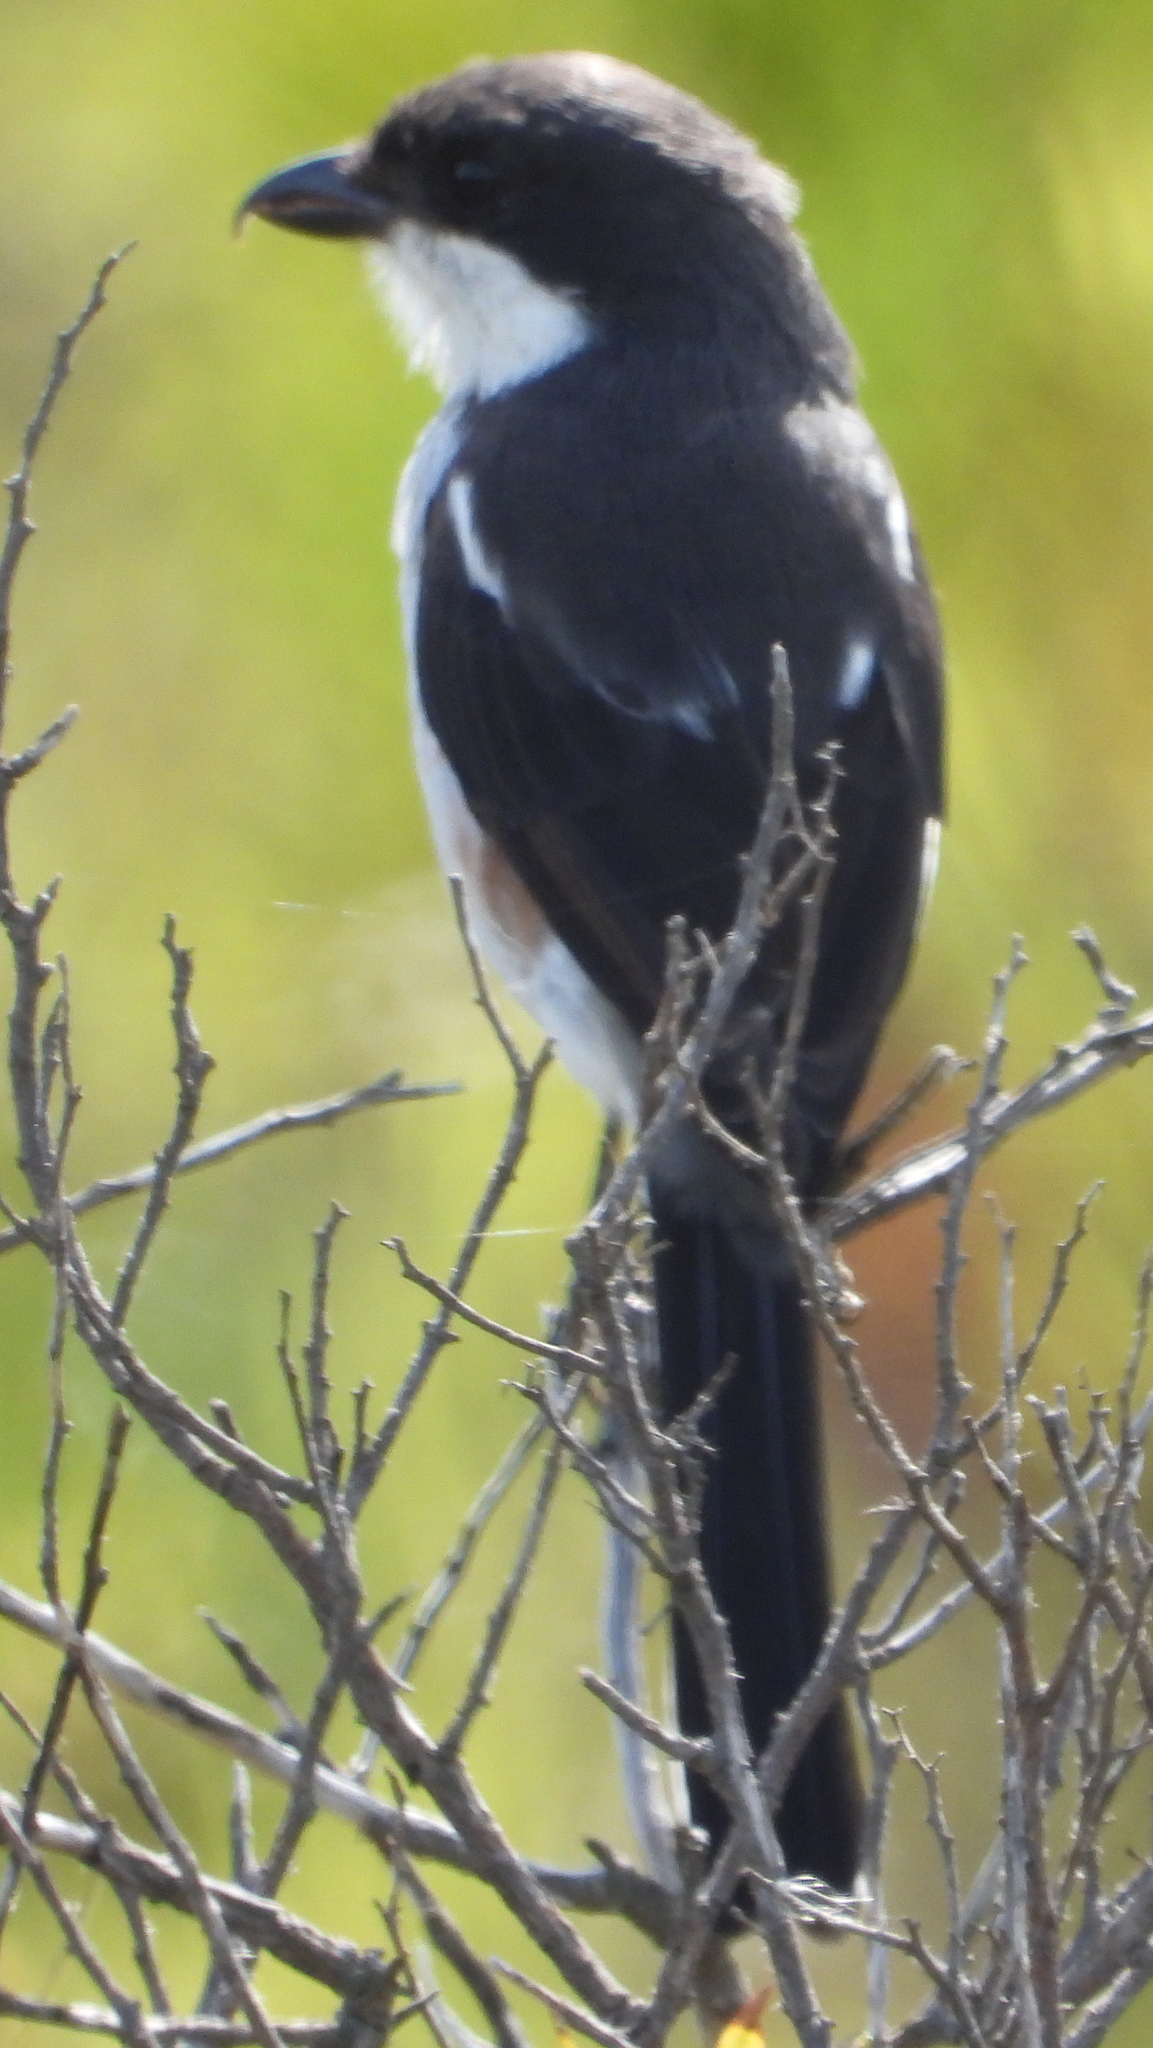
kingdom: Animalia
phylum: Chordata
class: Aves
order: Passeriformes
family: Laniidae
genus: Lanius
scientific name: Lanius collaris
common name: Southern fiscal
